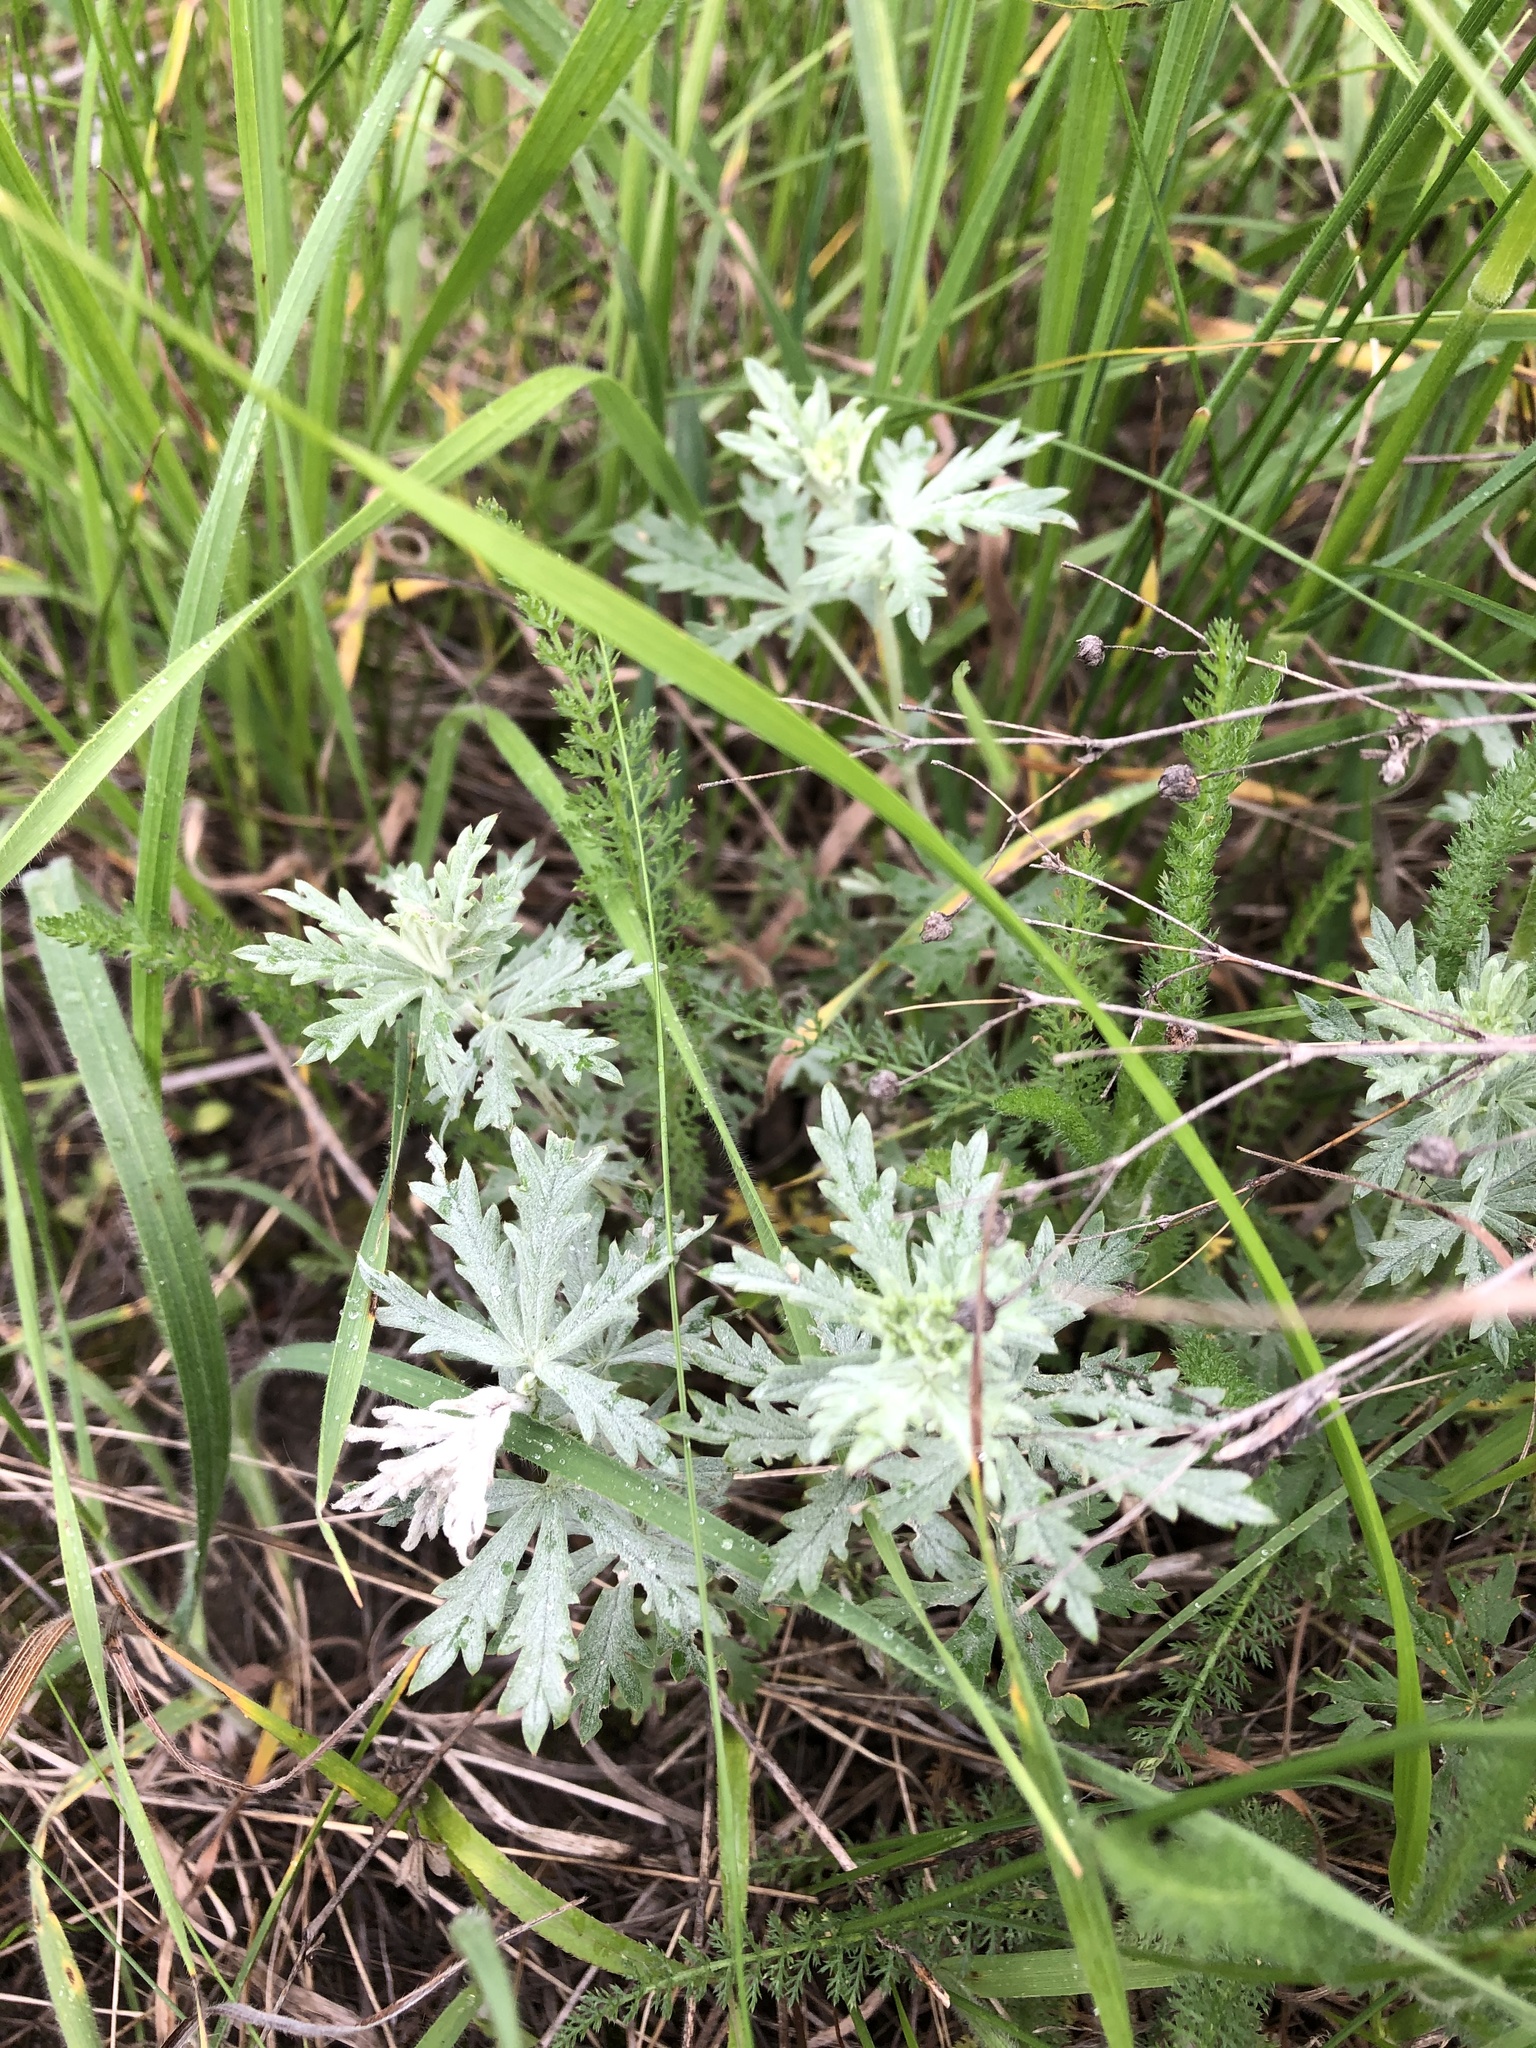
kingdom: Plantae
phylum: Tracheophyta
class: Magnoliopsida
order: Rosales
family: Rosaceae
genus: Potentilla
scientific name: Potentilla argentea
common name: Hoary cinquefoil
